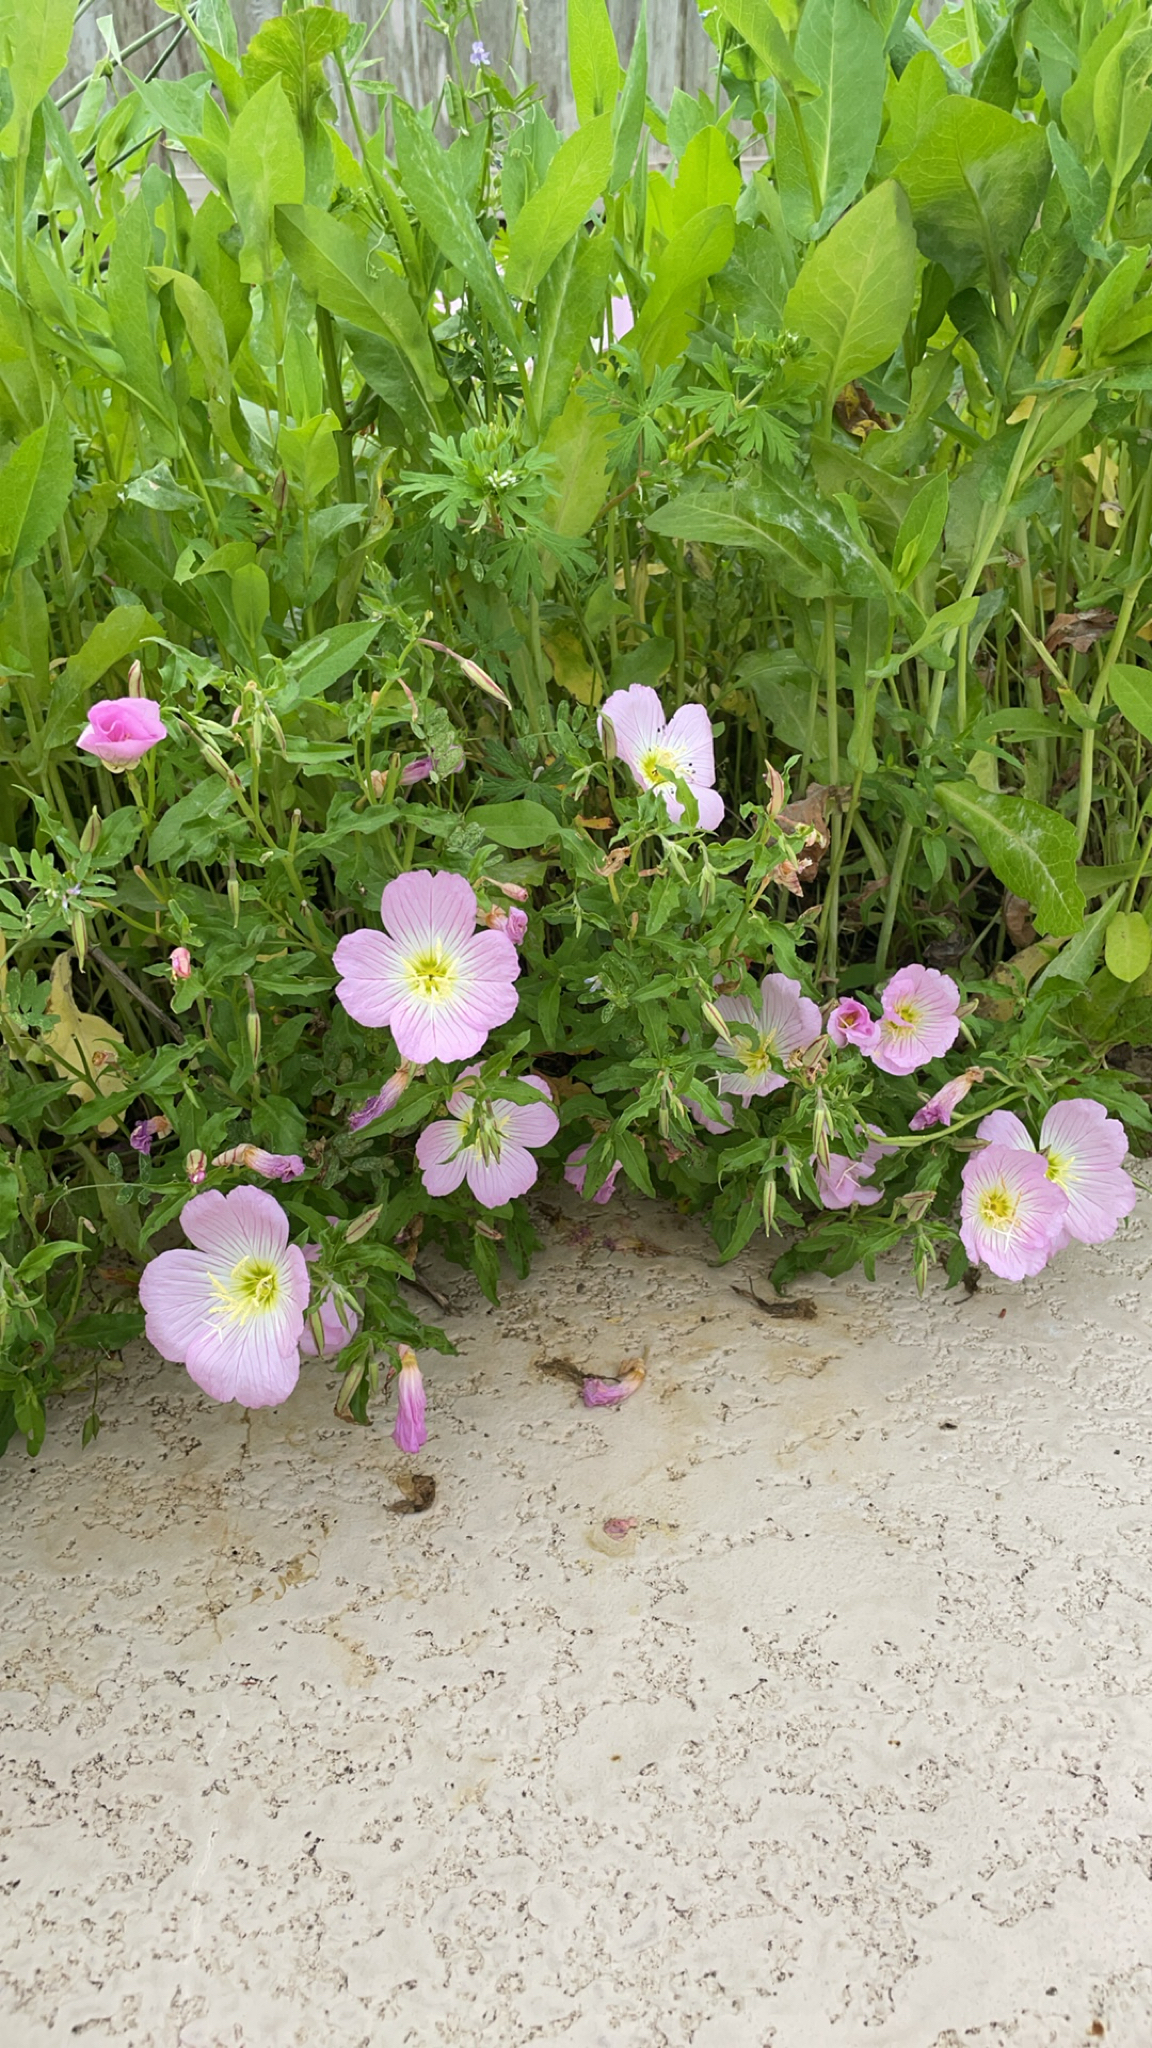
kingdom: Plantae
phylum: Tracheophyta
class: Magnoliopsida
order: Myrtales
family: Onagraceae
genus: Oenothera
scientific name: Oenothera speciosa
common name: White evening-primrose
